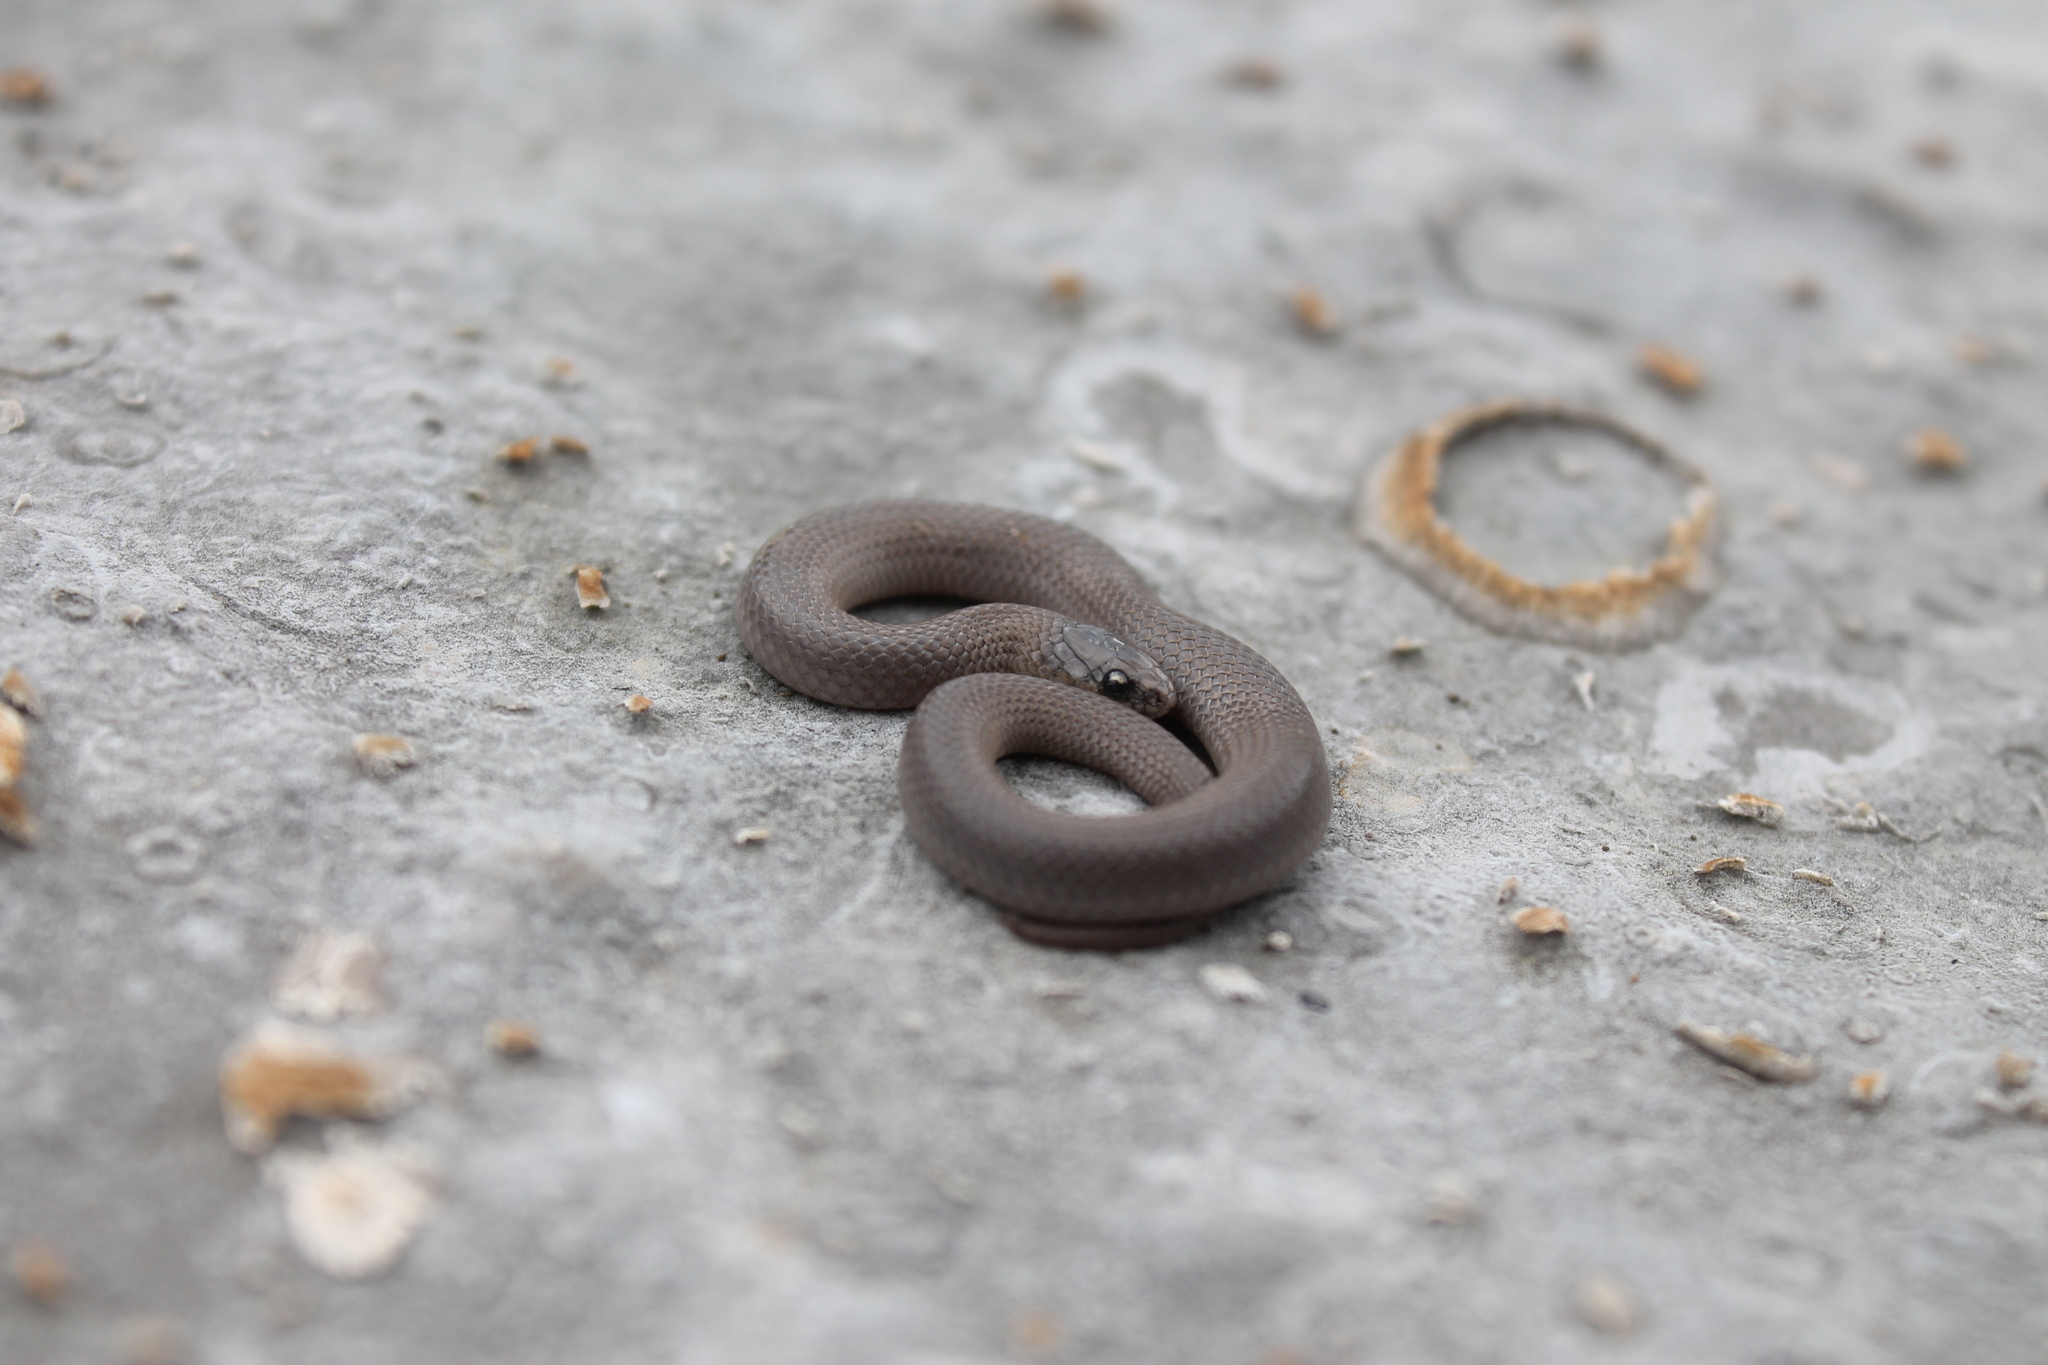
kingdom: Animalia
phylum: Chordata
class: Squamata
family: Colubridae
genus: Virginia
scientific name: Virginia valeriae
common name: Smooth earth snake
